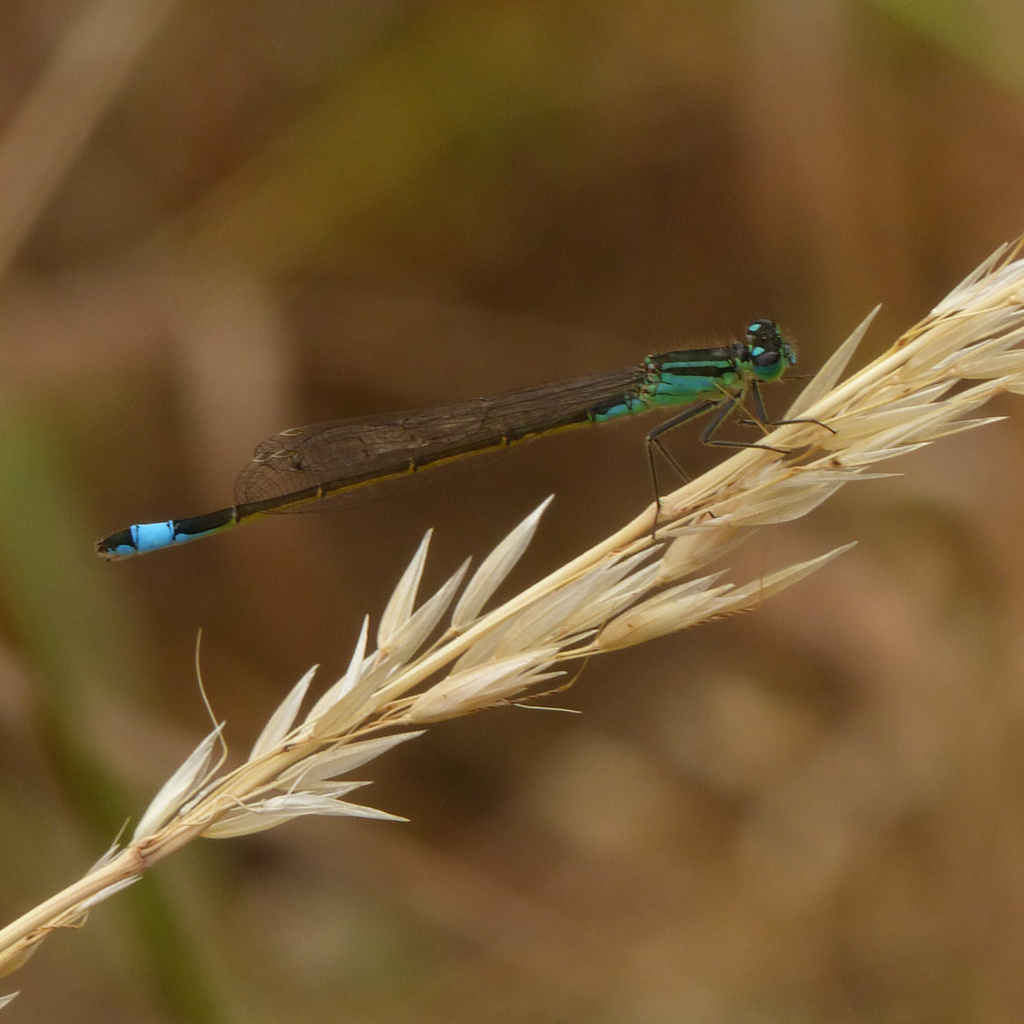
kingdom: Animalia
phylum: Arthropoda
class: Insecta
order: Odonata
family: Coenagrionidae
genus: Ischnura
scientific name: Ischnura elegans
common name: Blue-tailed damselfly
